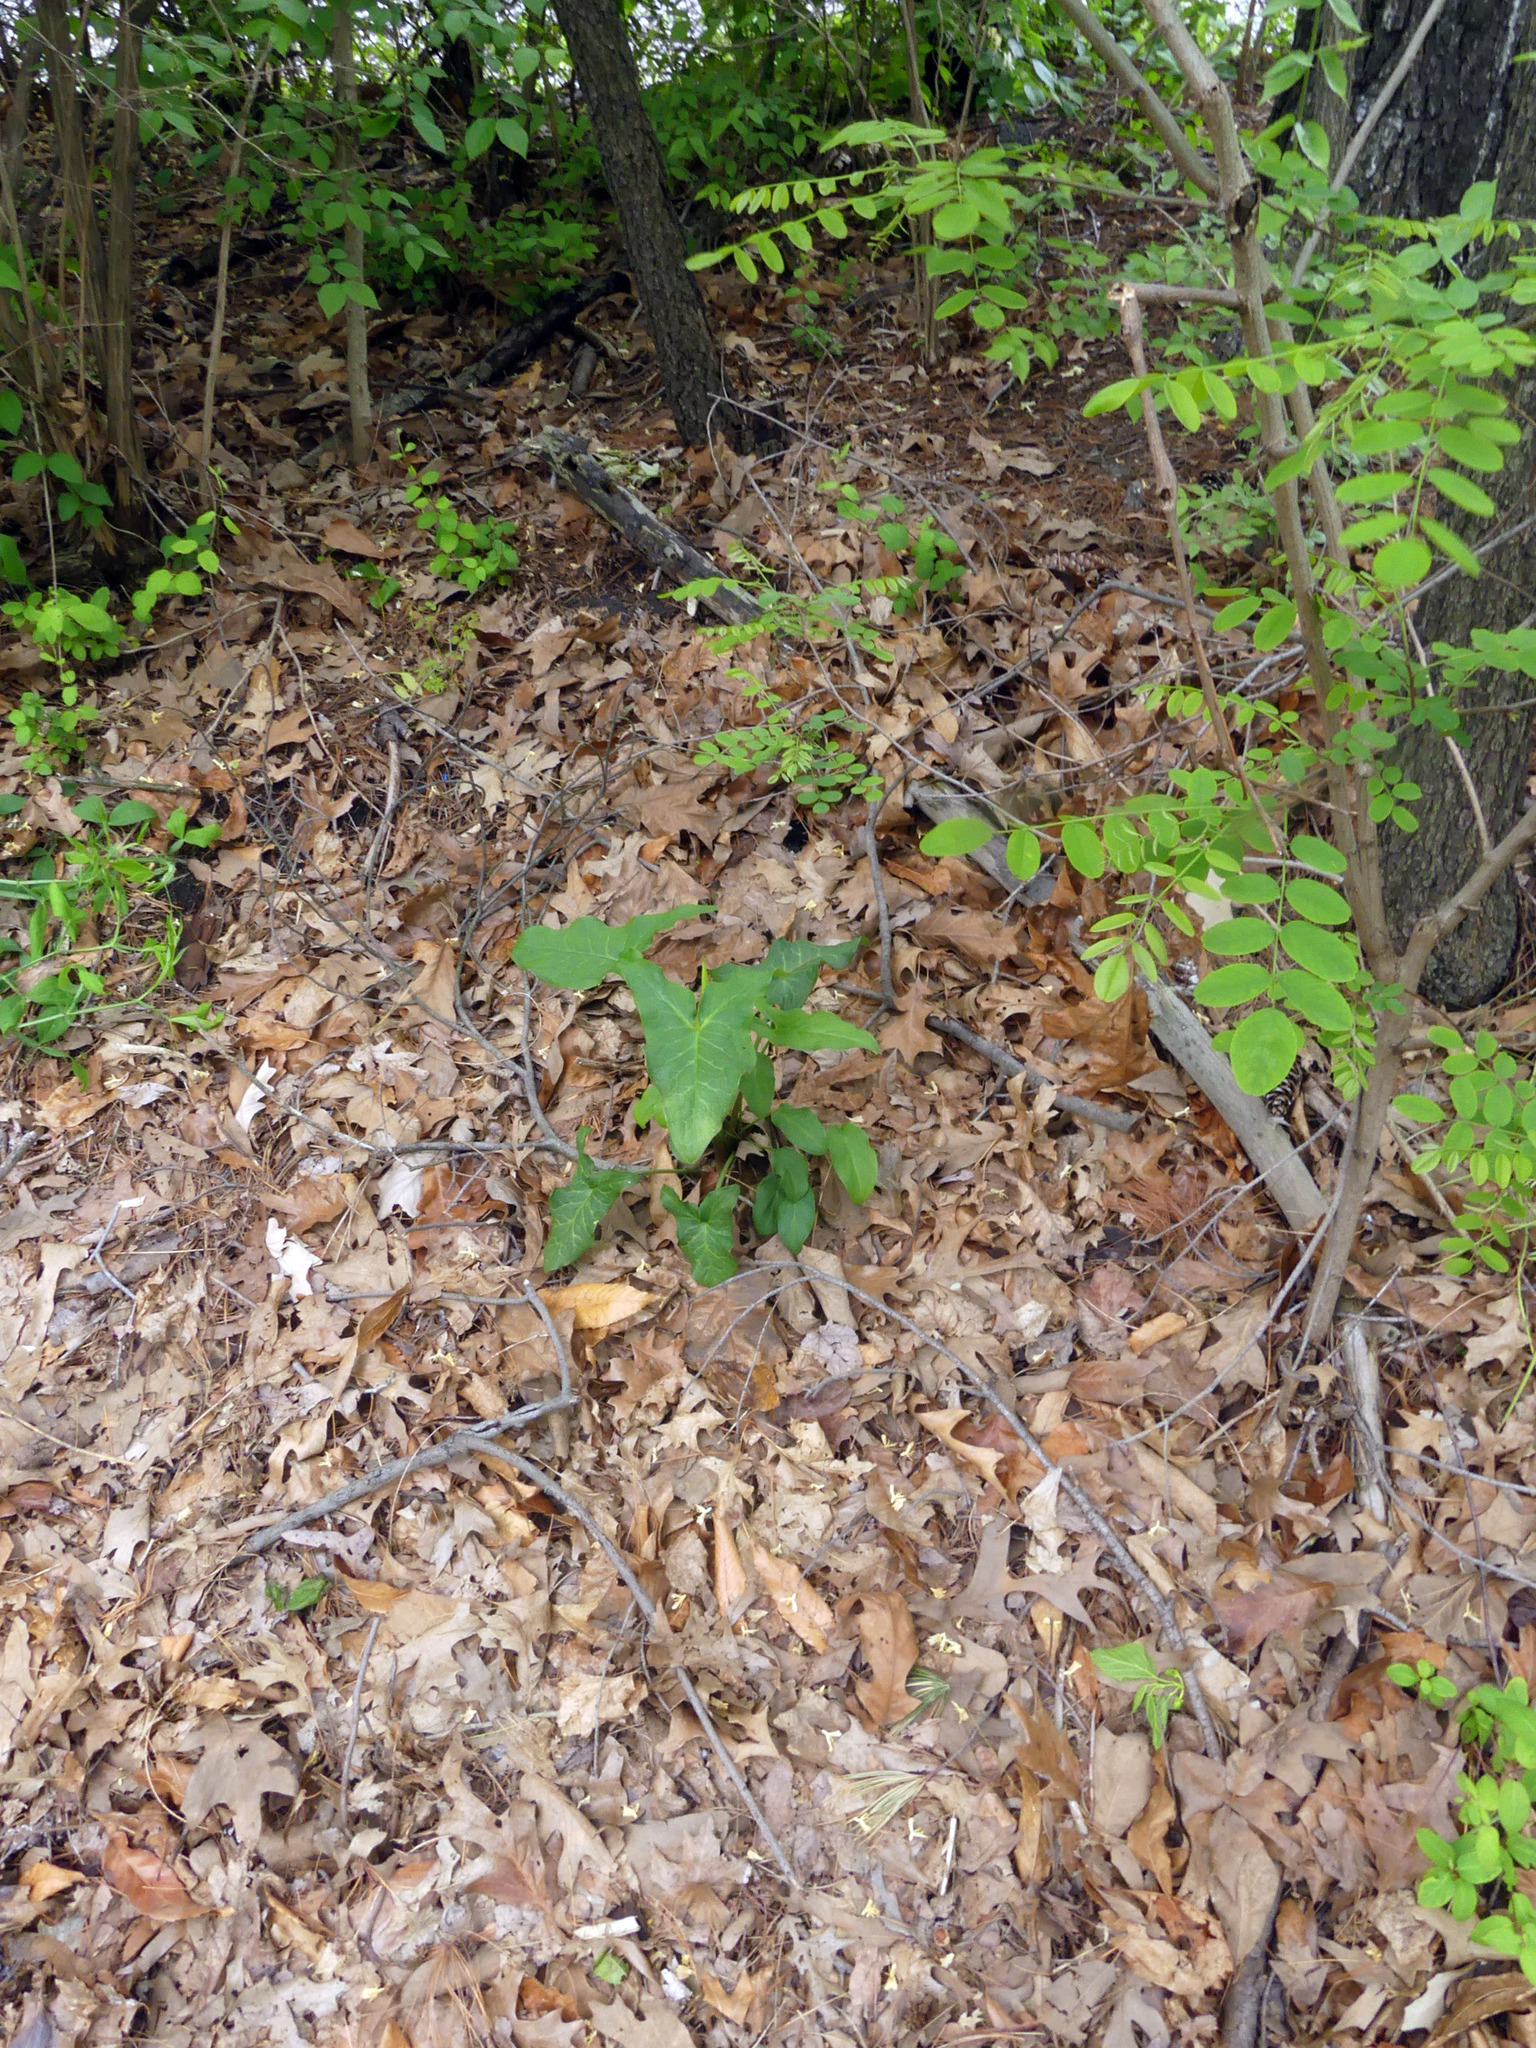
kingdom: Plantae
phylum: Tracheophyta
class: Liliopsida
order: Alismatales
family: Araceae
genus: Arum
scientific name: Arum italicum
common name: Italian lords-and-ladies
